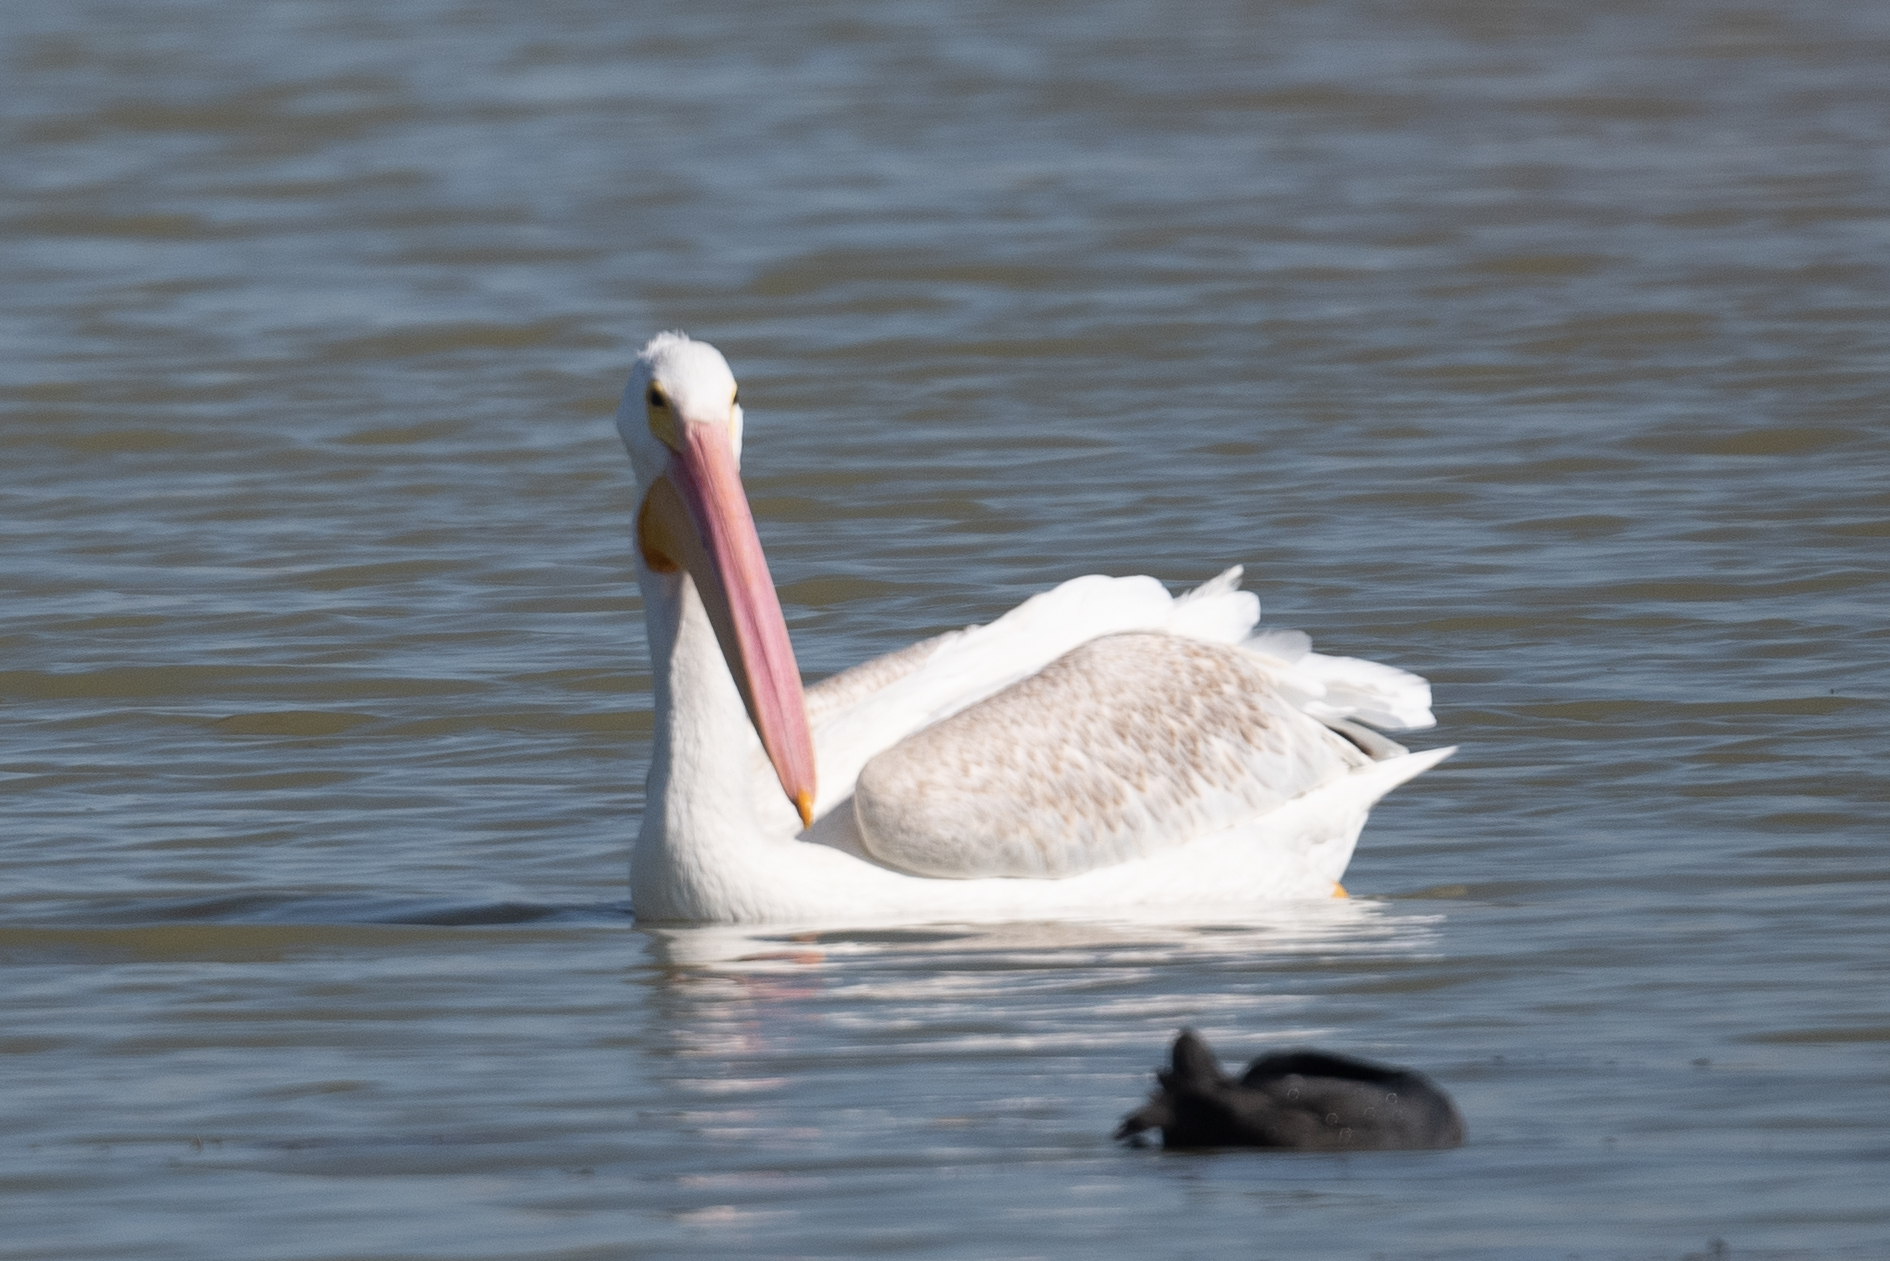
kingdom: Animalia
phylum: Chordata
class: Aves
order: Pelecaniformes
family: Pelecanidae
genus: Pelecanus
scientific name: Pelecanus erythrorhynchos
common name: American white pelican
